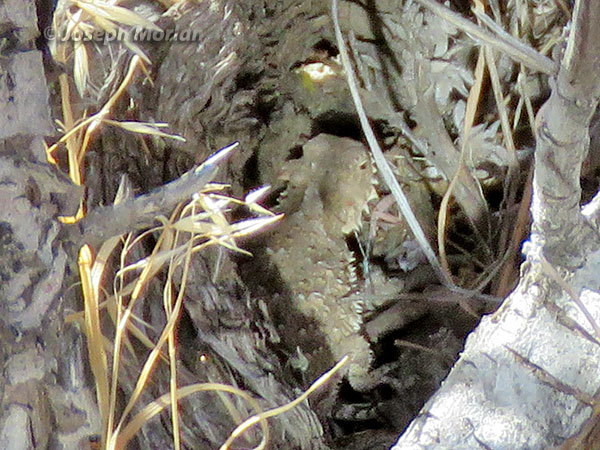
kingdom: Animalia
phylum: Chordata
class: Squamata
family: Phrynosomatidae
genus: Phrynosoma
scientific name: Phrynosoma blainvillii
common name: San diego horned lizard
